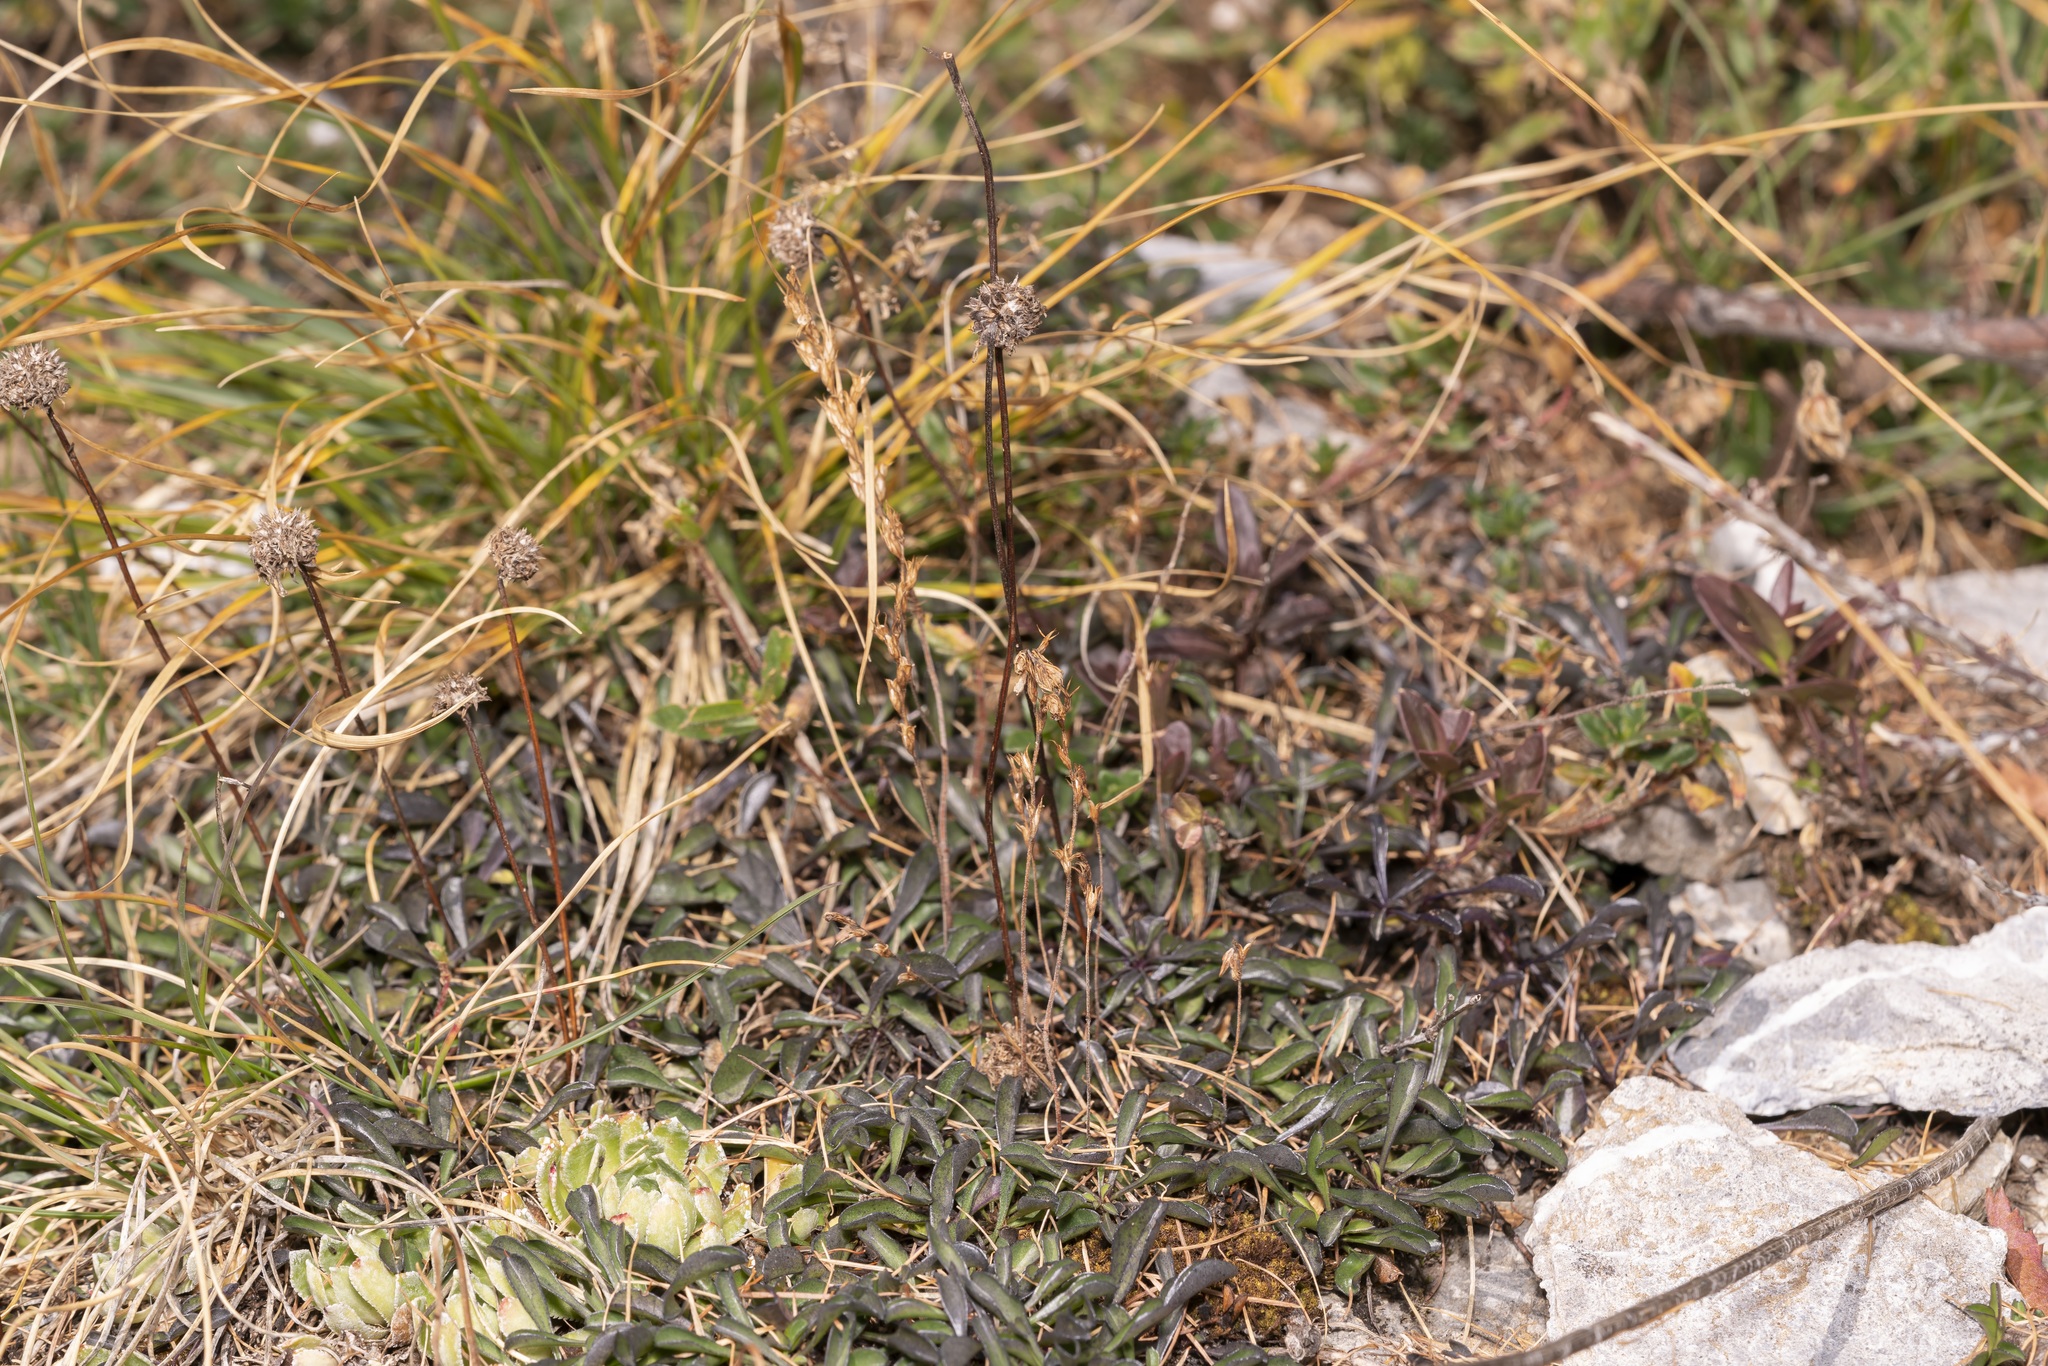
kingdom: Plantae
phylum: Tracheophyta
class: Magnoliopsida
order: Lamiales
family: Plantaginaceae
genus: Globularia
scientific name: Globularia cordifolia
